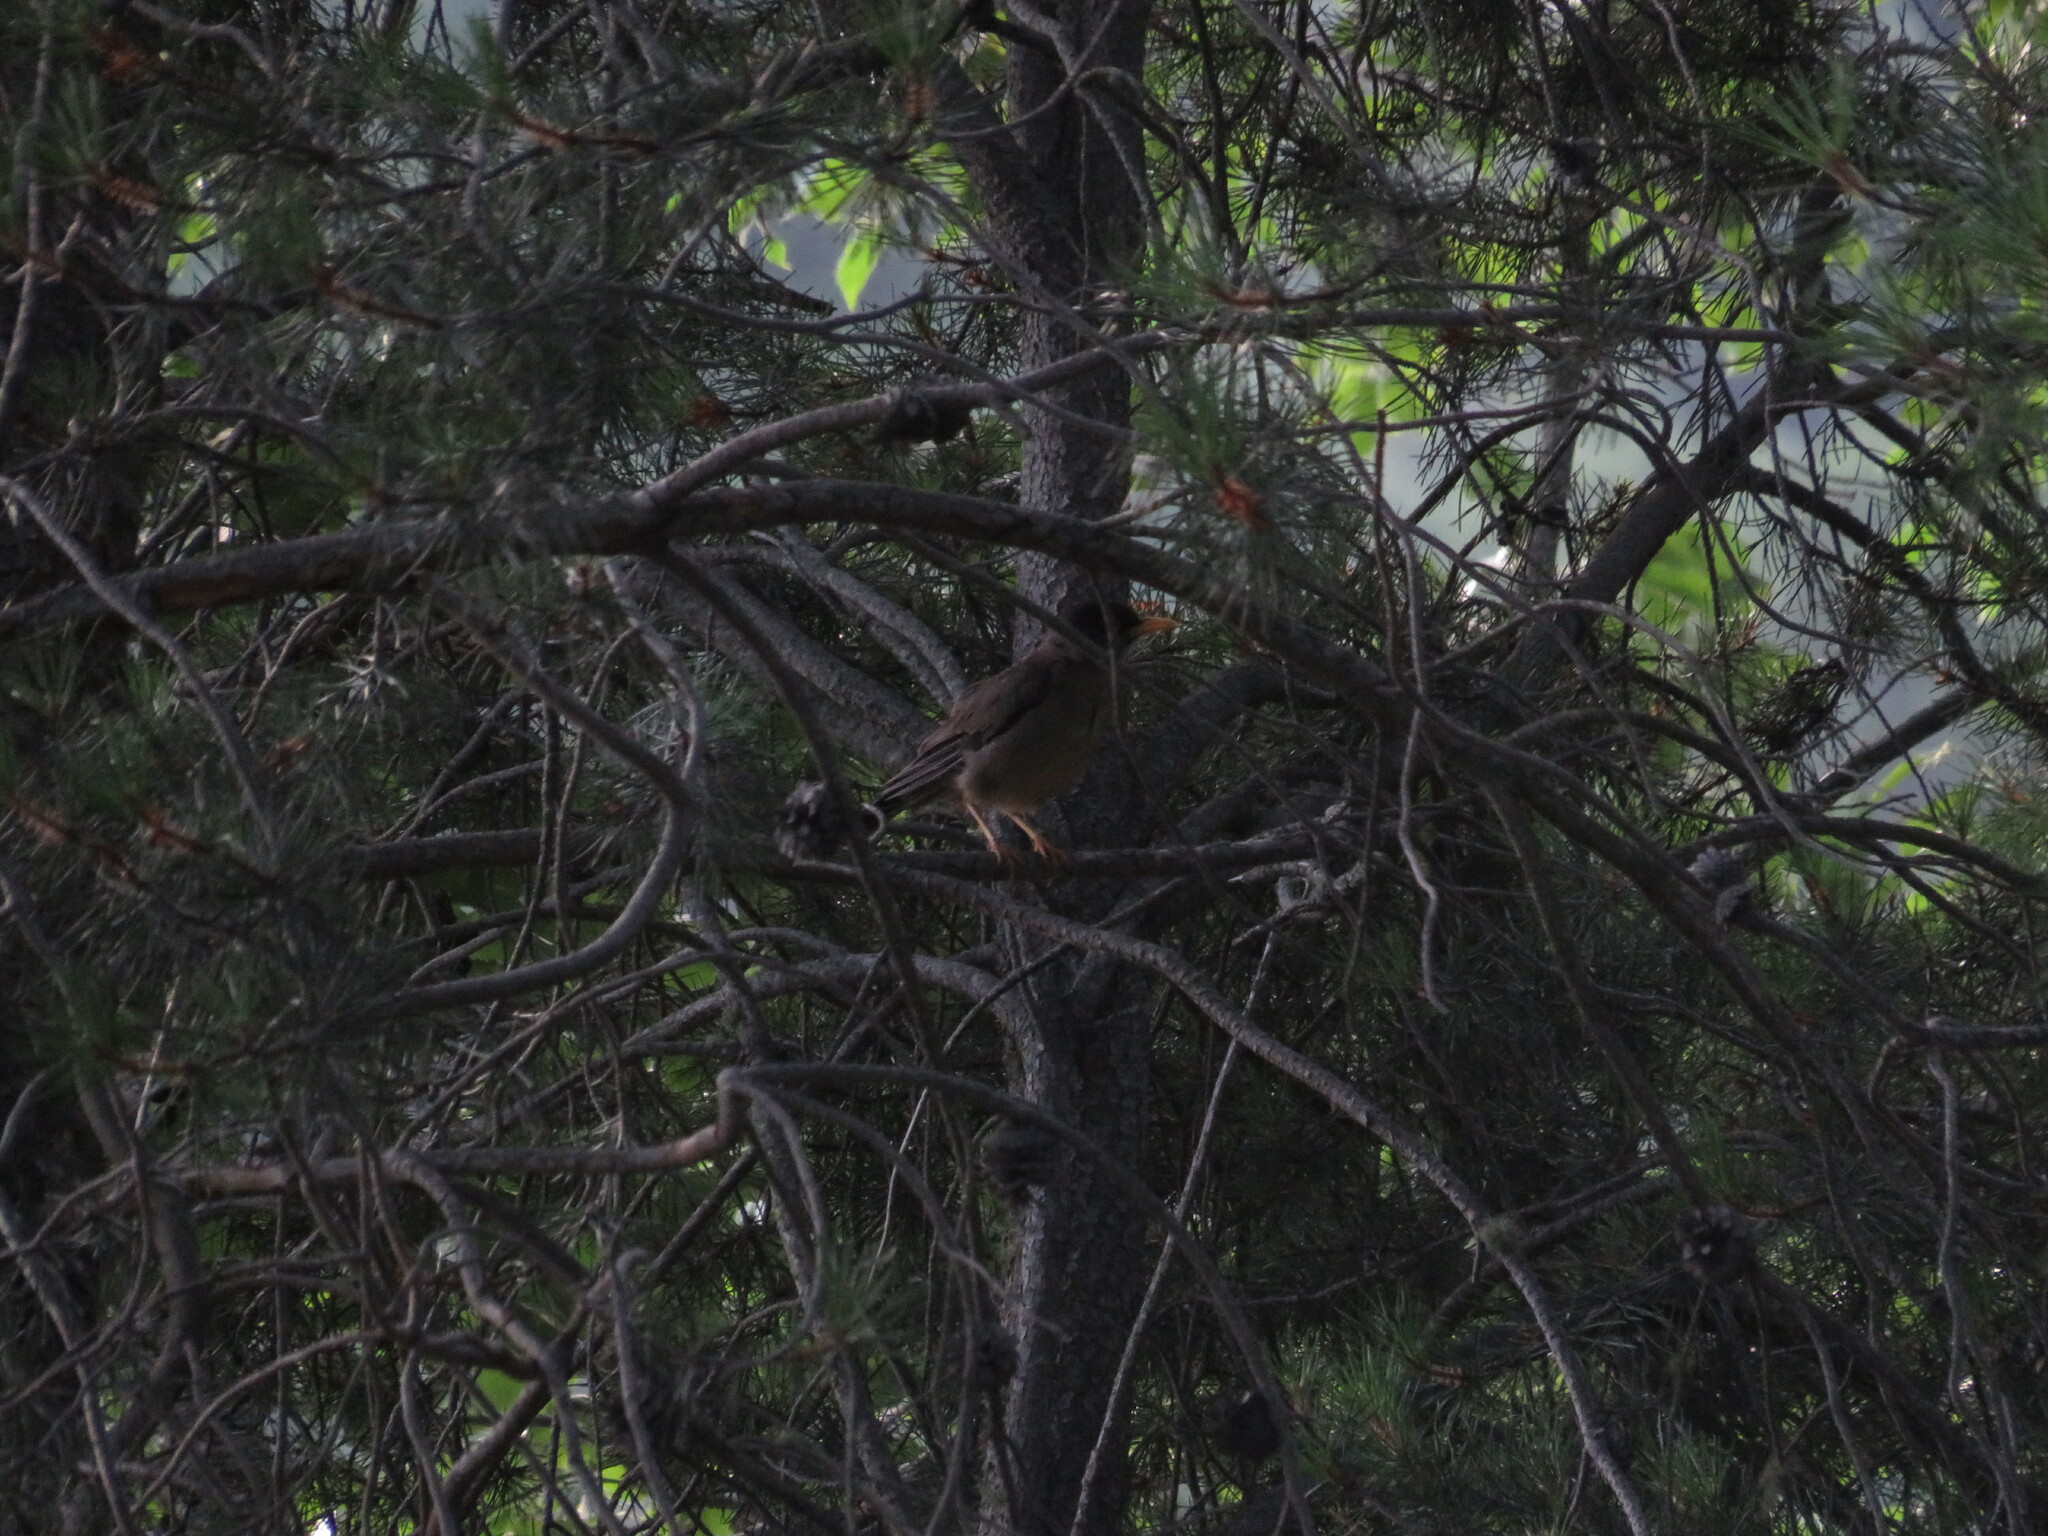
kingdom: Animalia
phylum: Chordata
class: Aves
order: Passeriformes
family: Turdidae
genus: Turdus
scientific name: Turdus falcklandii
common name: Austral thrush
